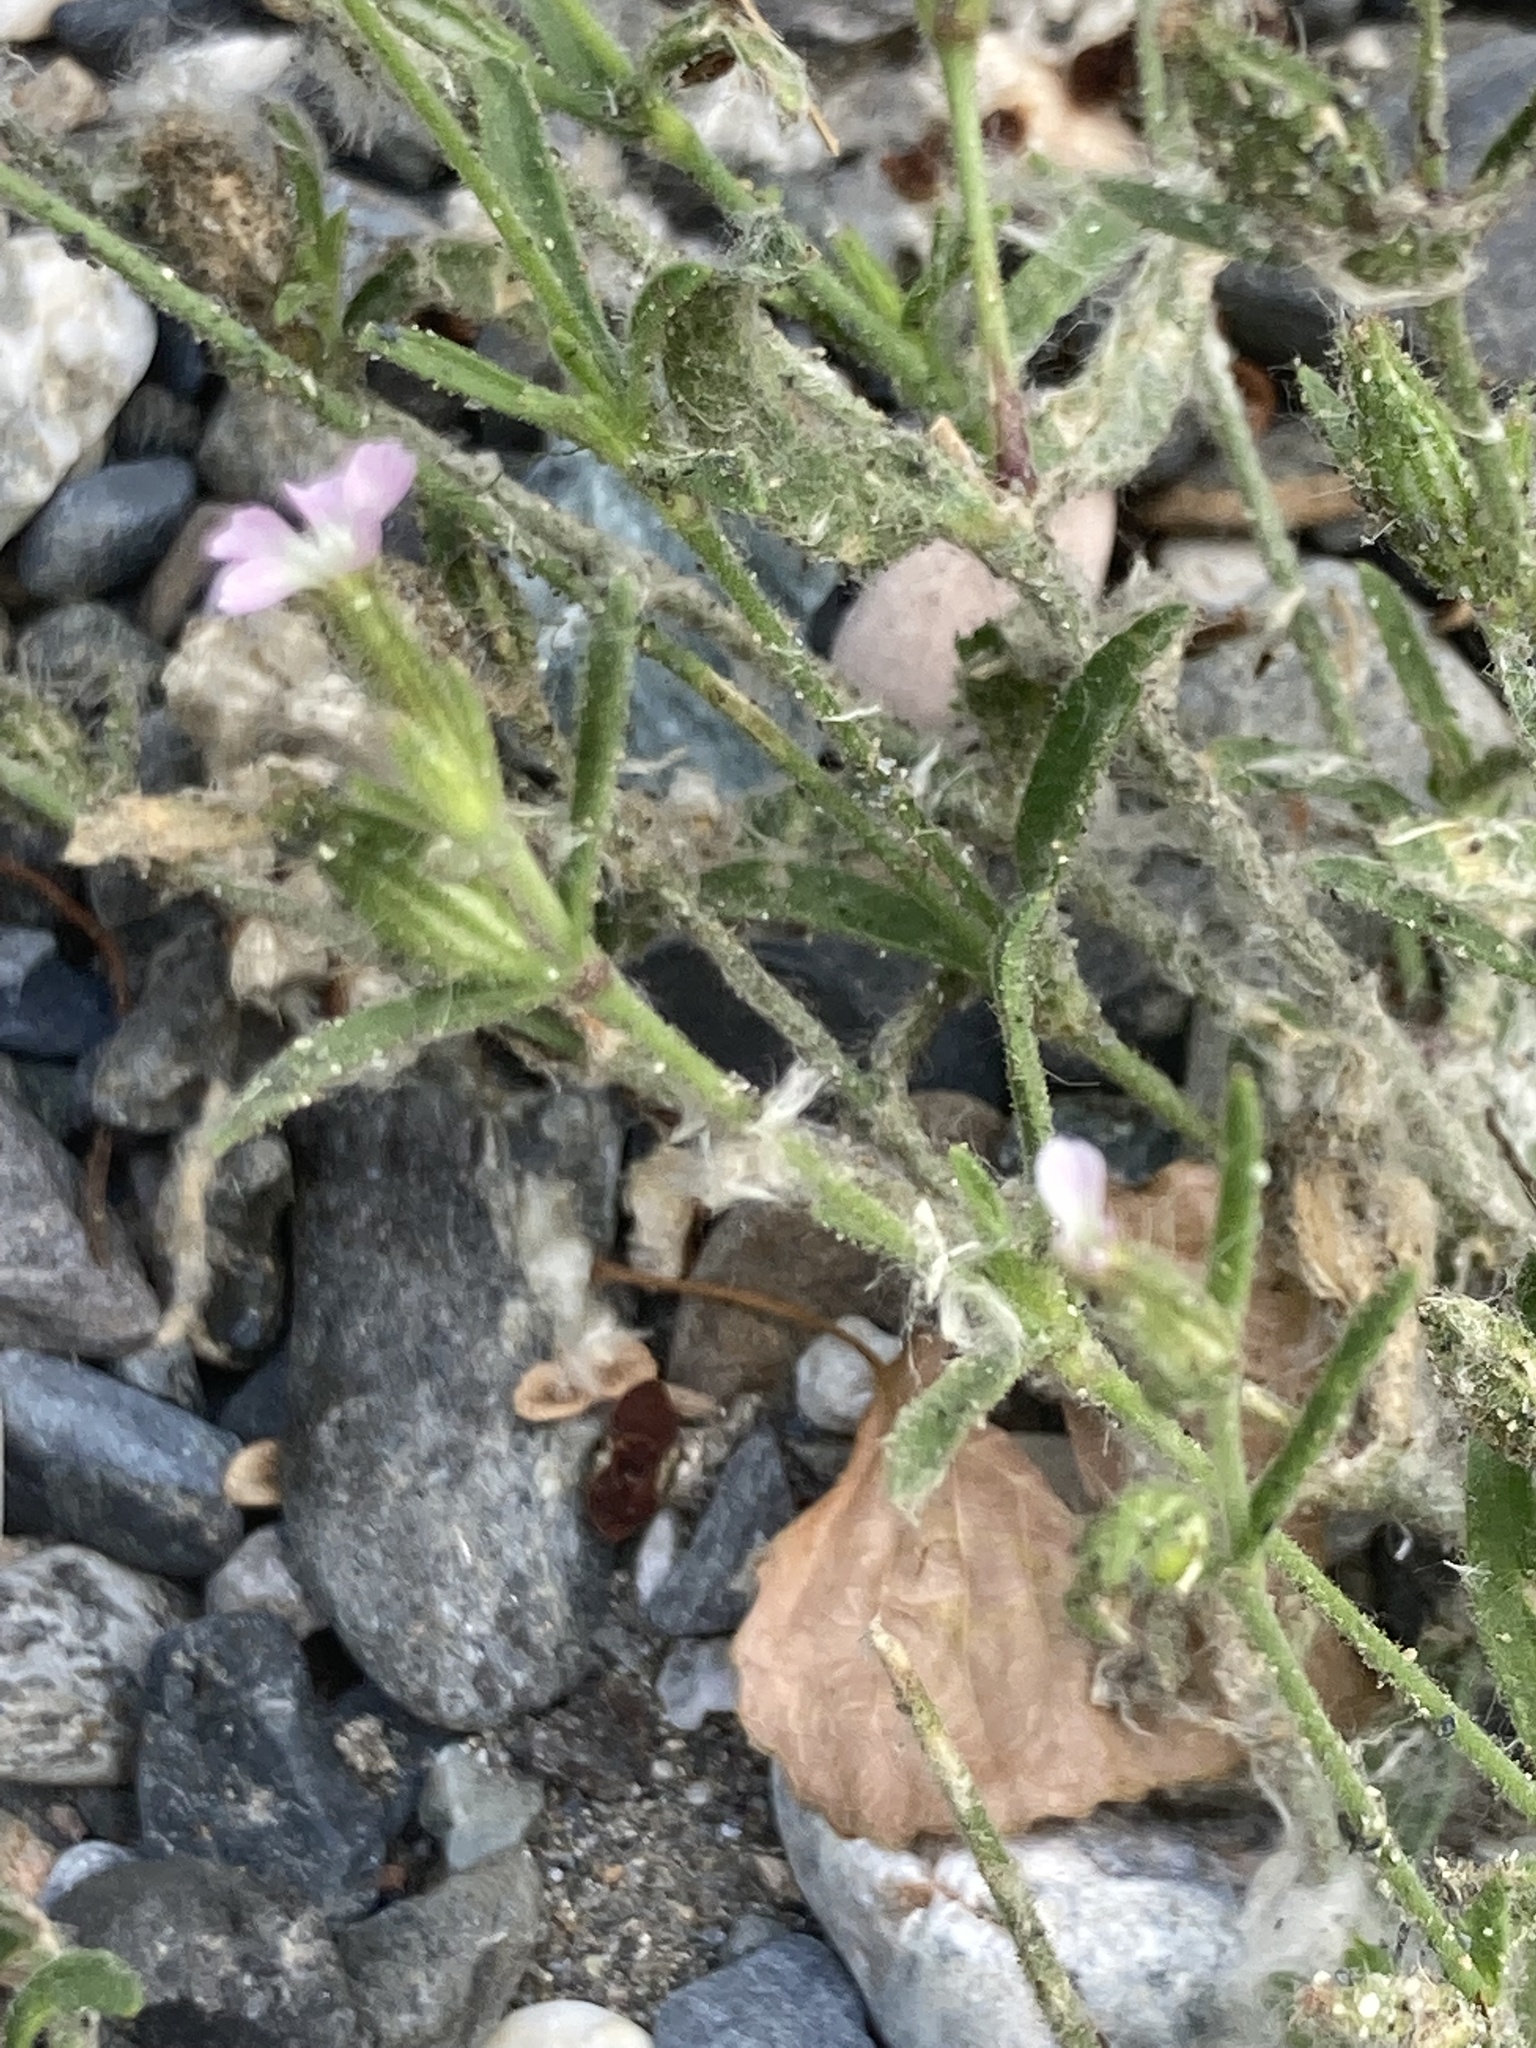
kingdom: Plantae
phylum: Tracheophyta
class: Magnoliopsida
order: Caryophyllales
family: Caryophyllaceae
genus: Silene
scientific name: Silene gallica
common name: Small-flowered catchfly
